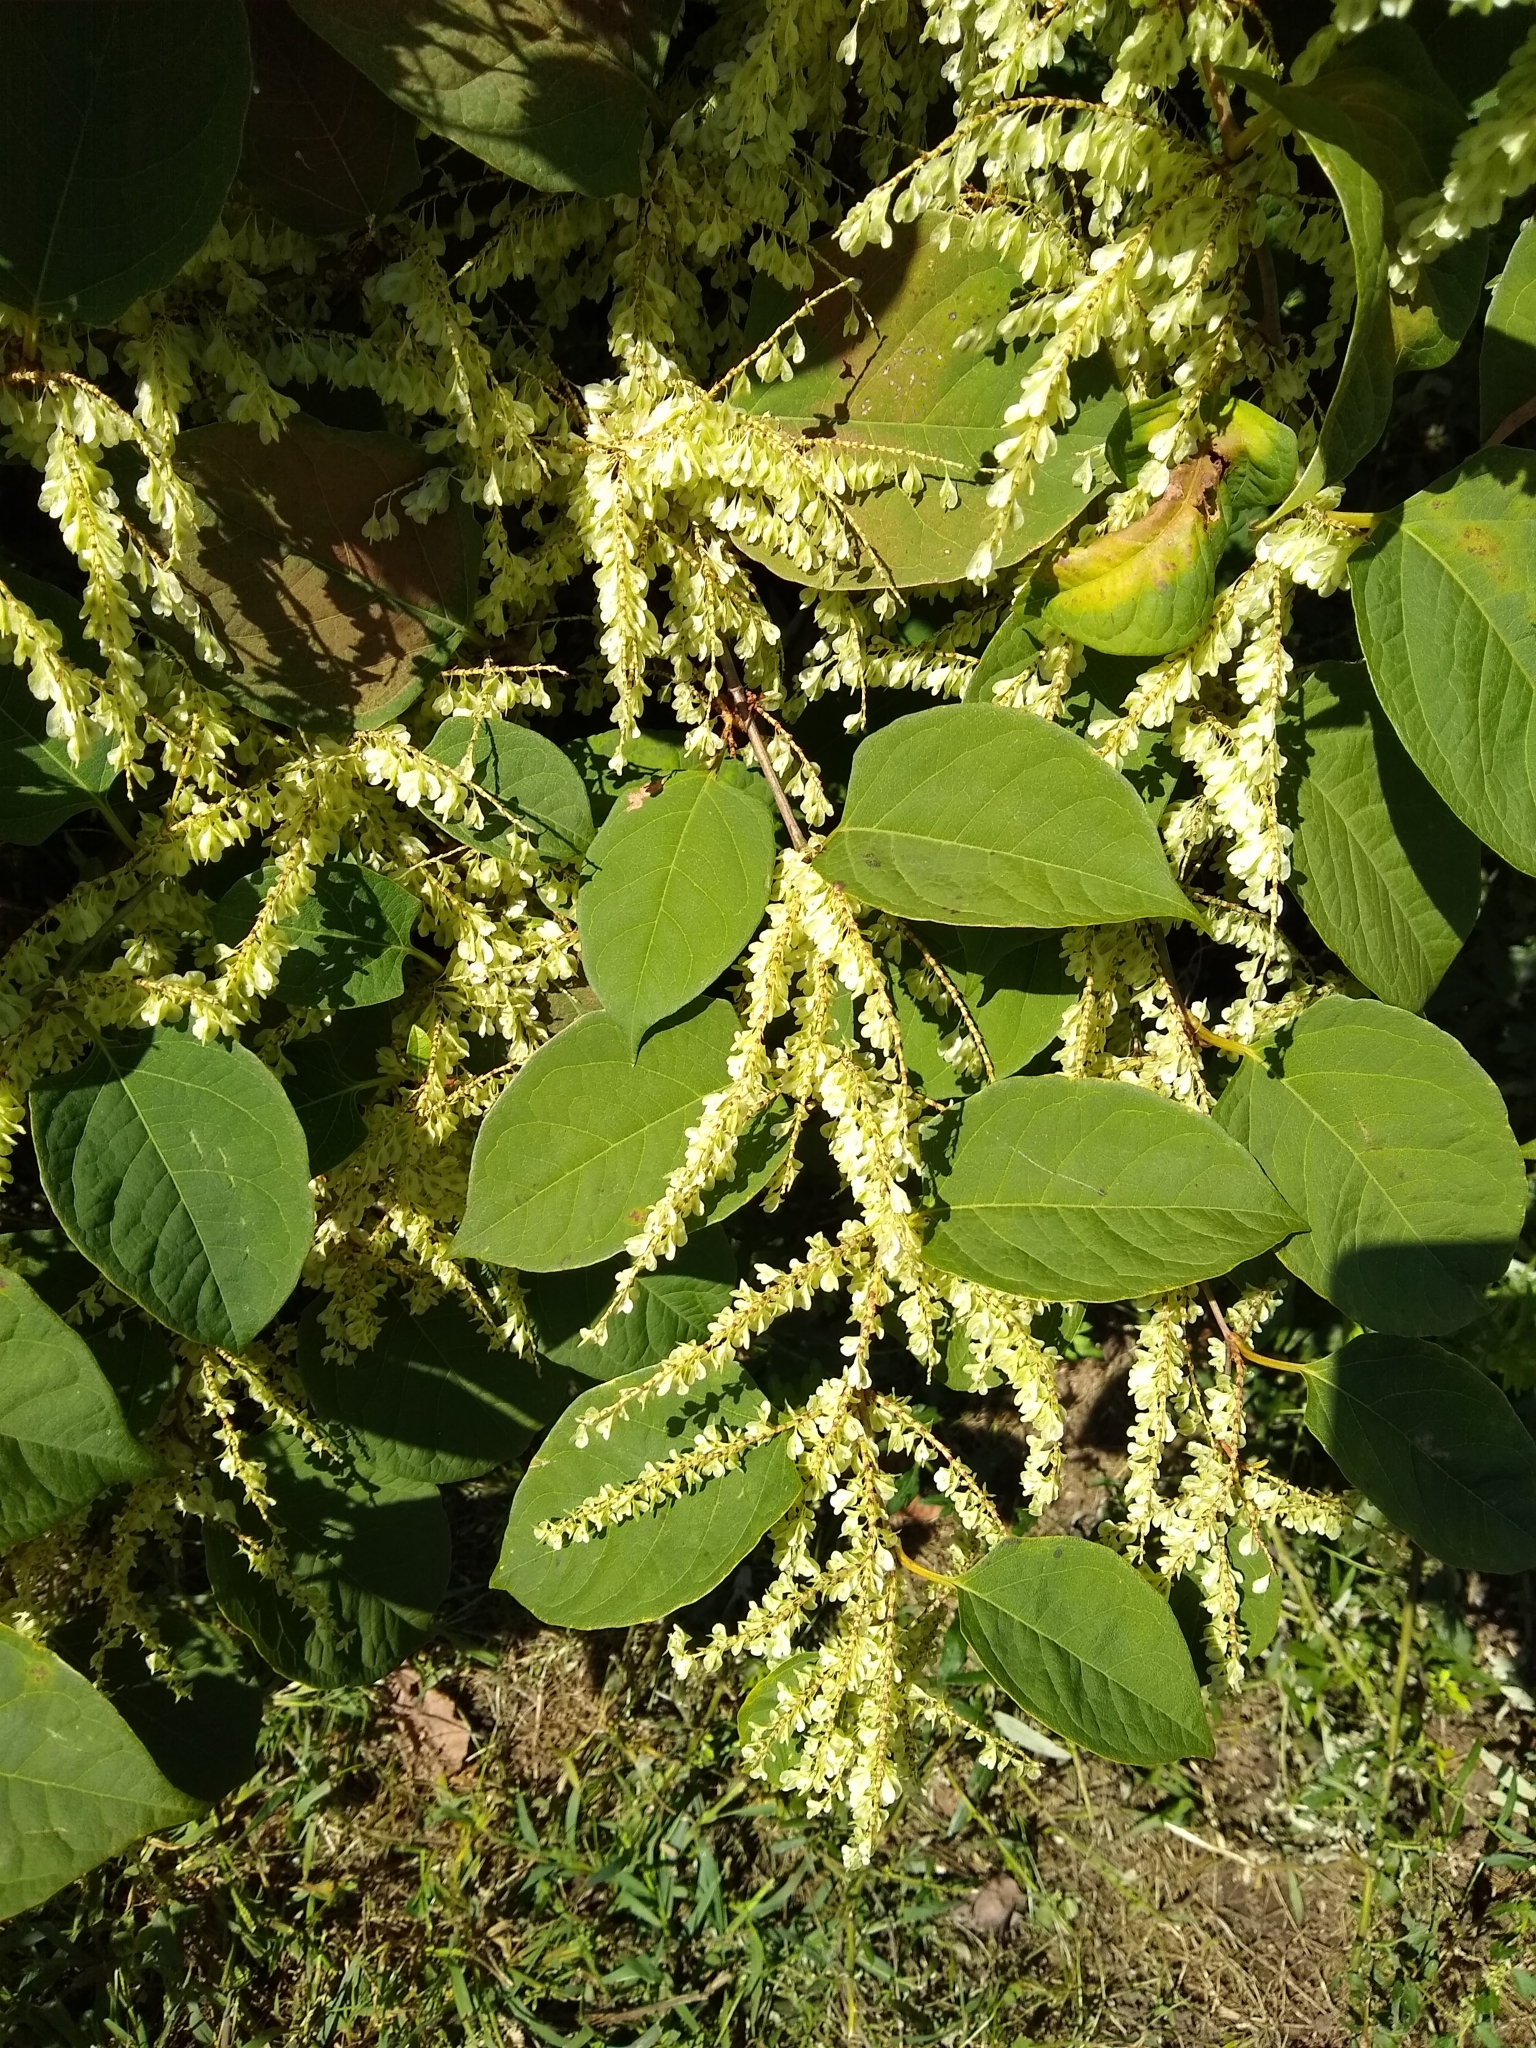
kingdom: Plantae
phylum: Tracheophyta
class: Magnoliopsida
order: Caryophyllales
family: Polygonaceae
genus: Reynoutria
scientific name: Reynoutria japonica
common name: Japanese knotweed
